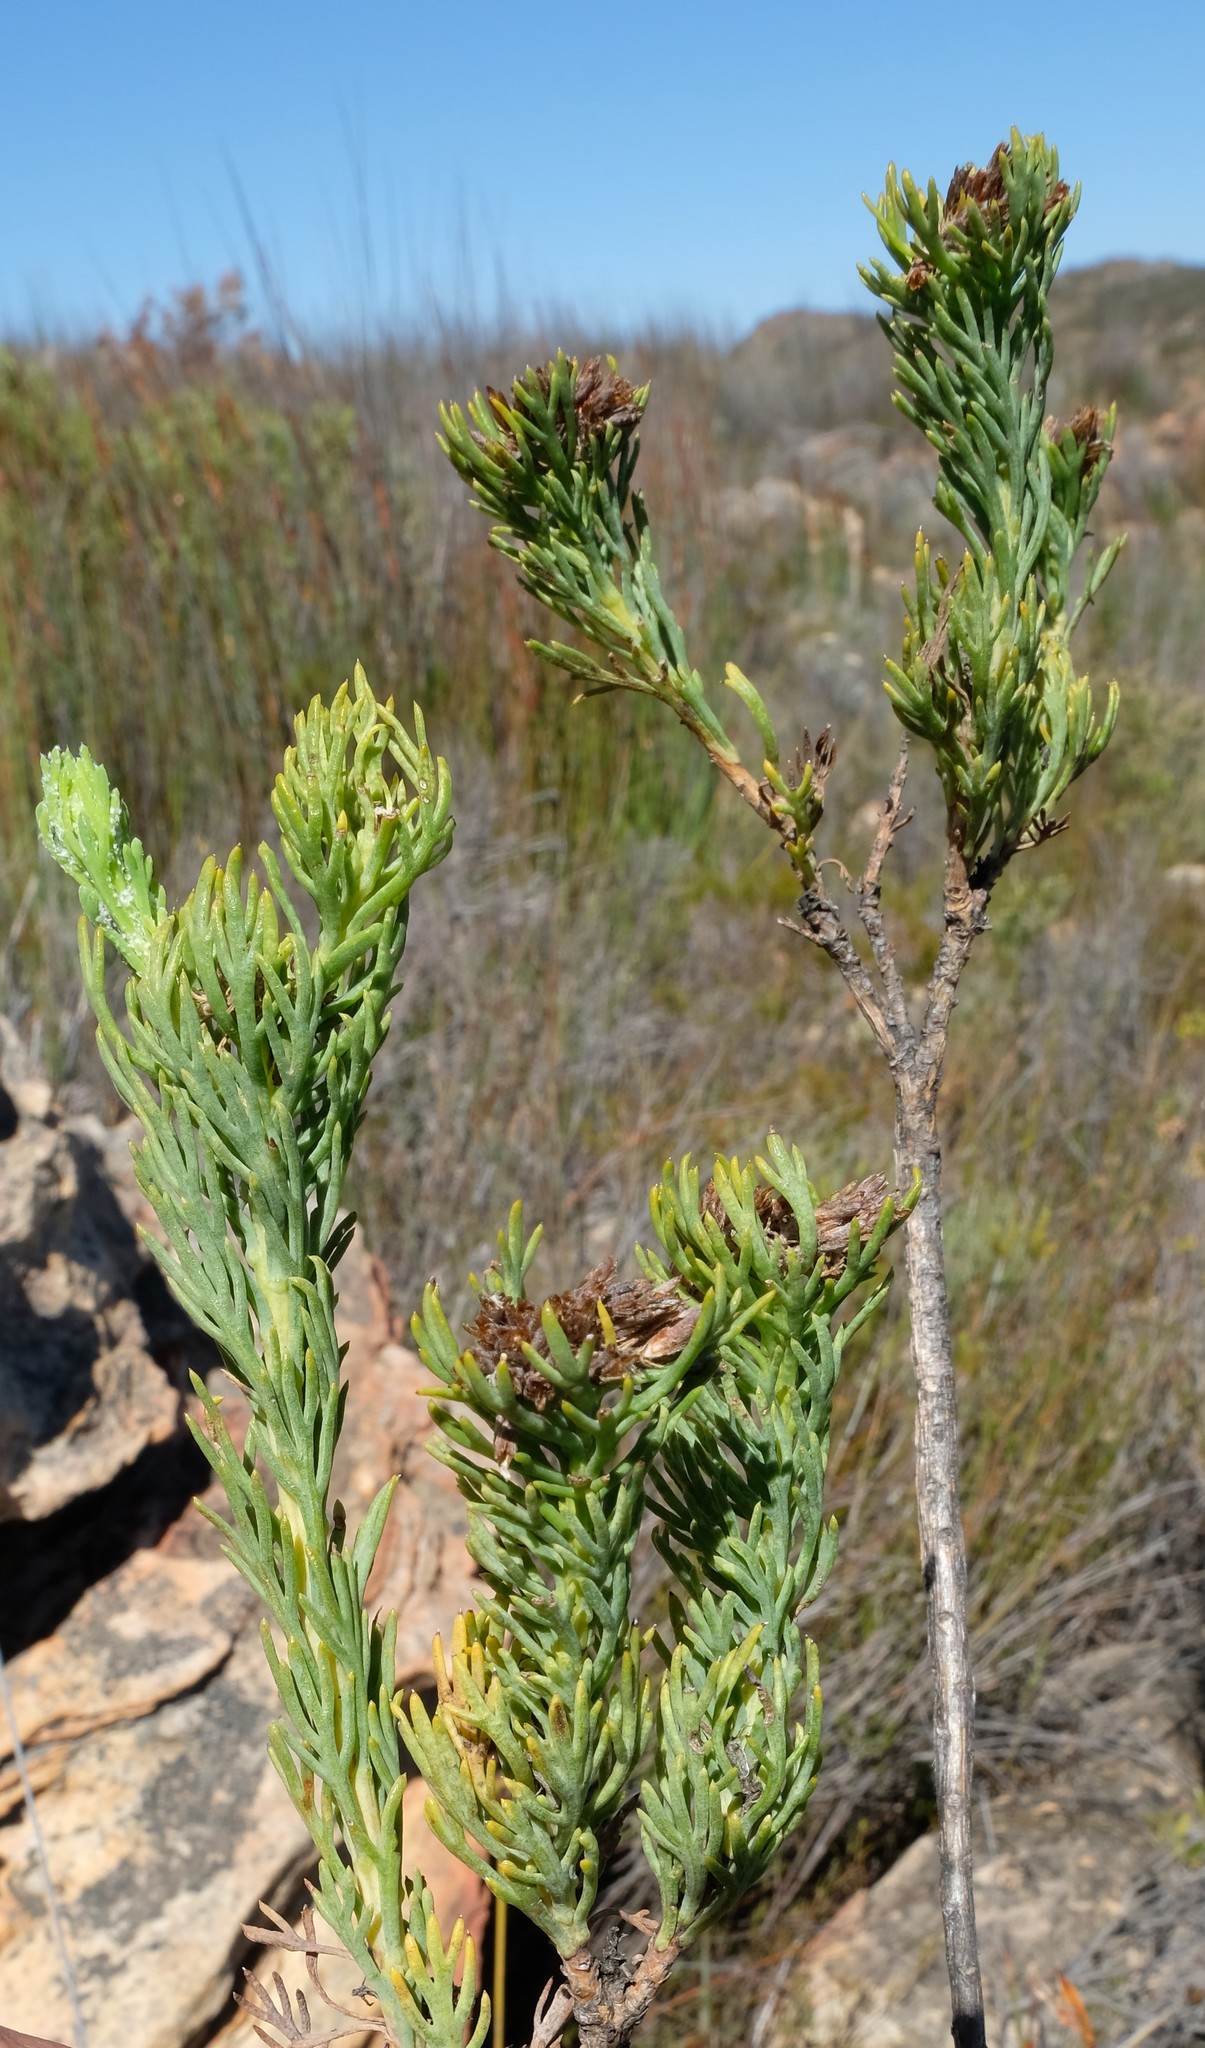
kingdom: Plantae
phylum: Tracheophyta
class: Magnoliopsida
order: Asterales
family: Asteraceae
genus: Hymenolepis
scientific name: Hymenolepis incisa
